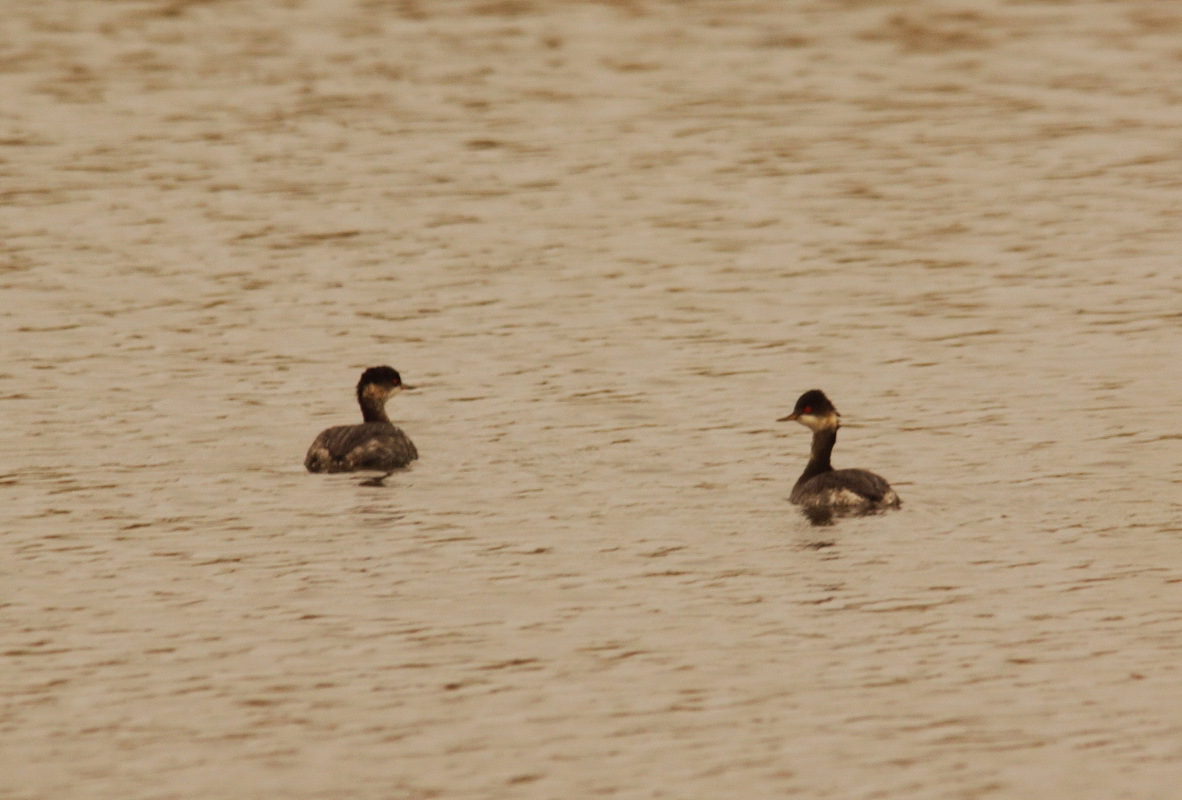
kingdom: Animalia
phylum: Chordata
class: Aves
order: Podicipediformes
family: Podicipedidae
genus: Podiceps
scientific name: Podiceps nigricollis
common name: Black-necked grebe
